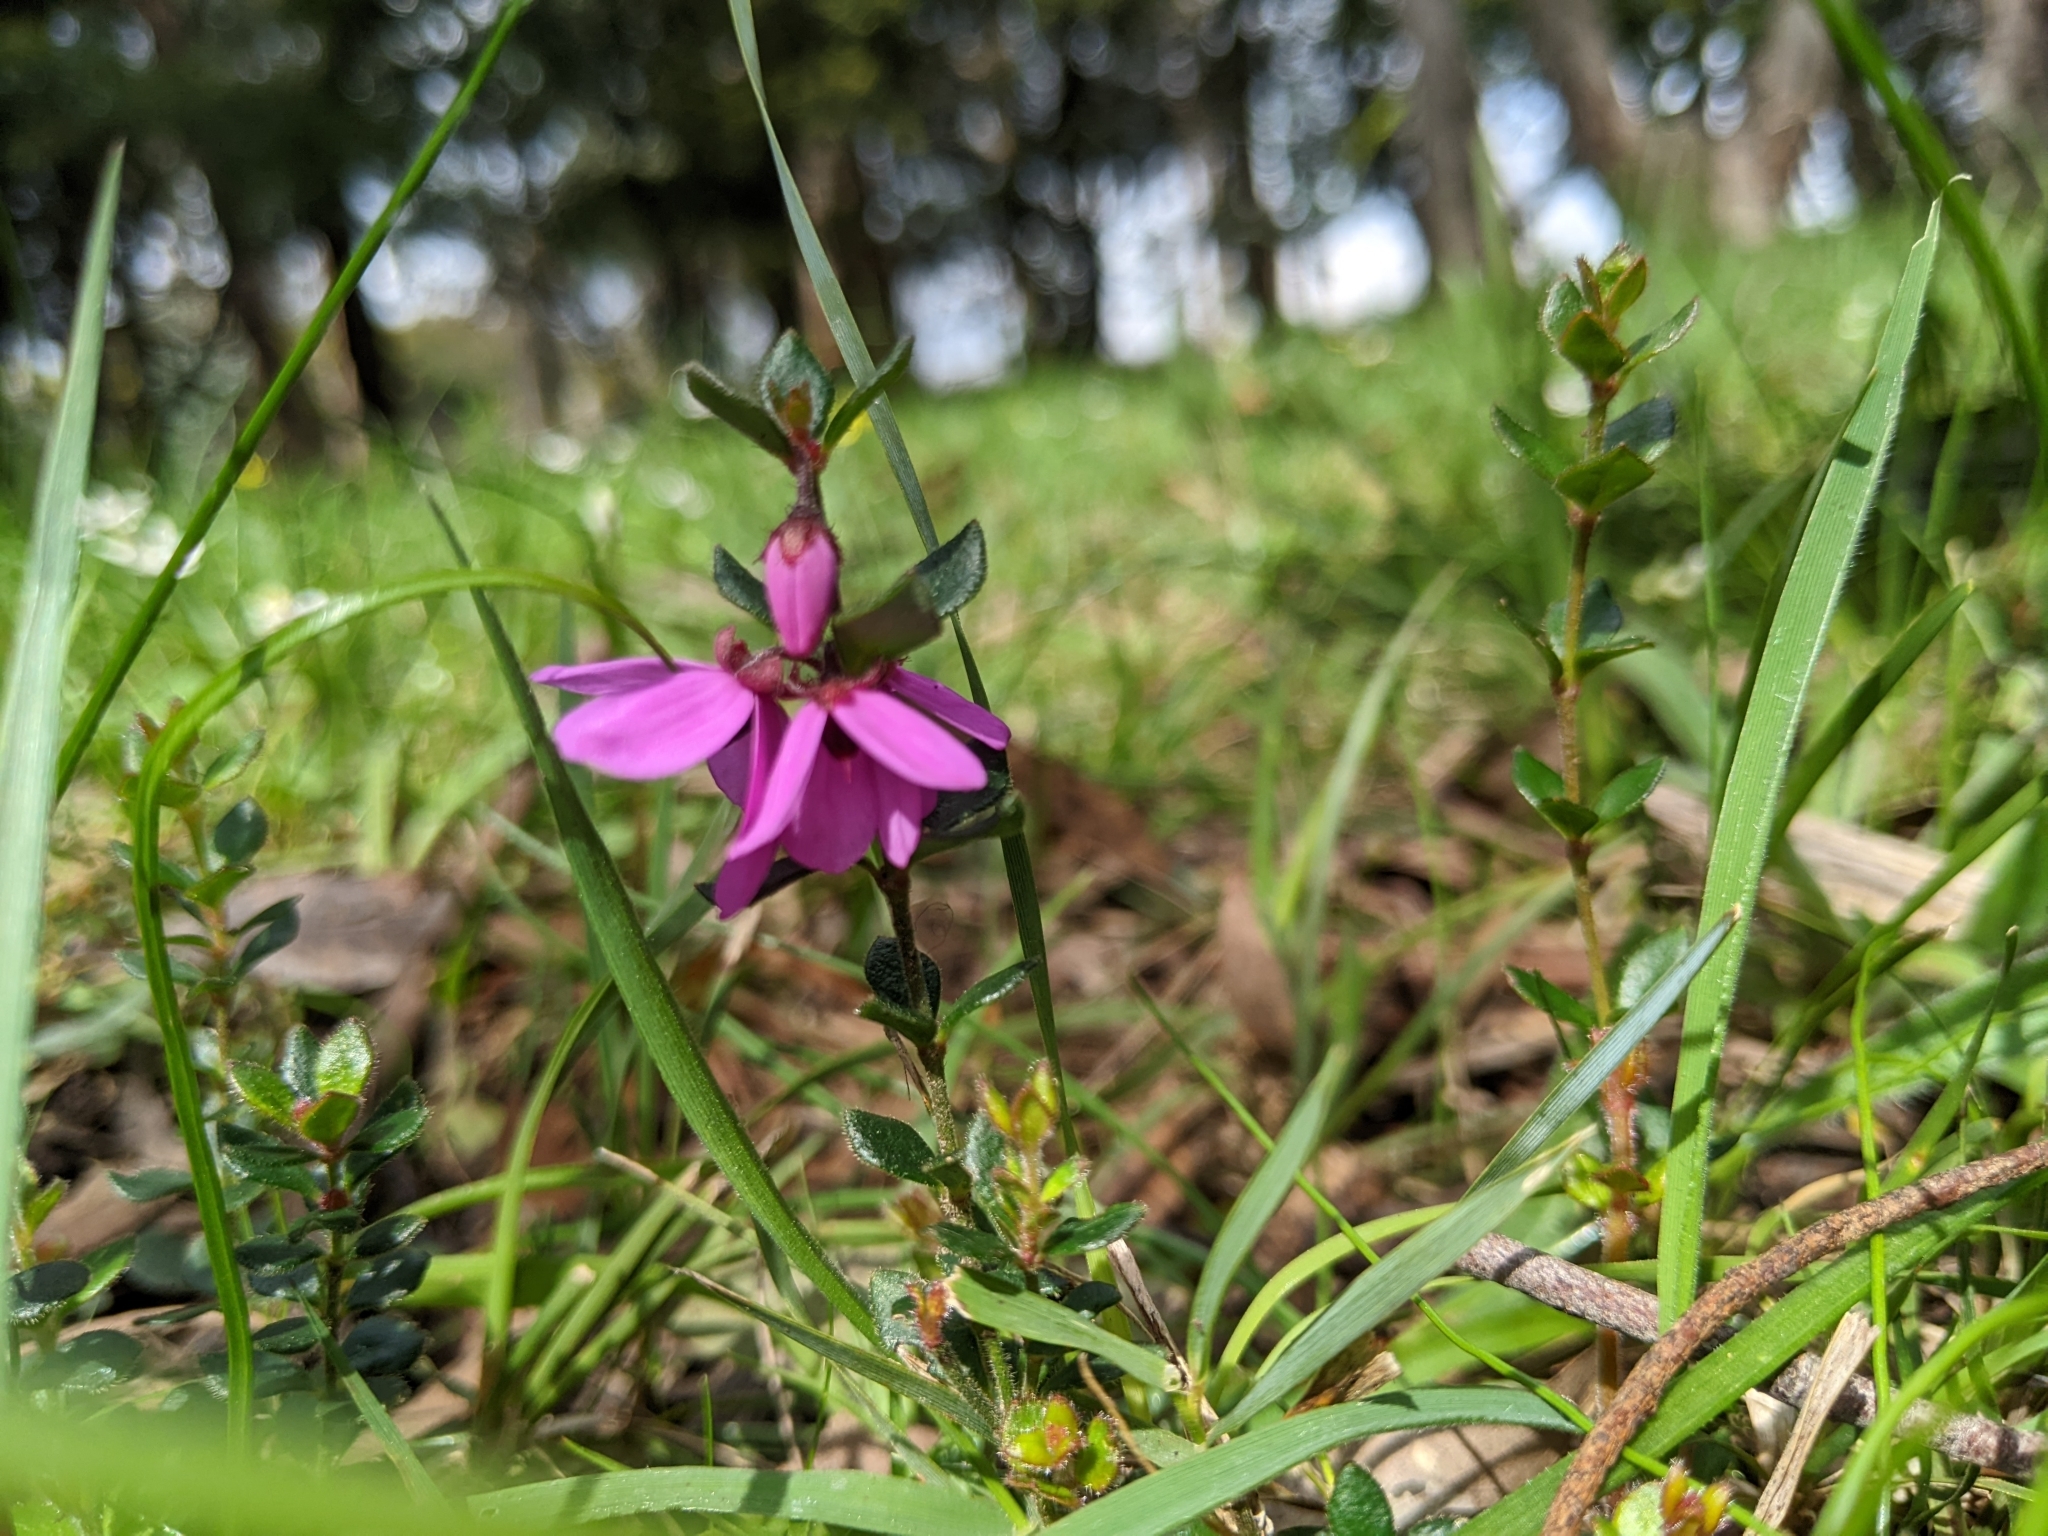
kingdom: Plantae
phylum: Tracheophyta
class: Magnoliopsida
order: Oxalidales
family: Elaeocarpaceae
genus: Tetratheca
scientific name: Tetratheca ciliata
